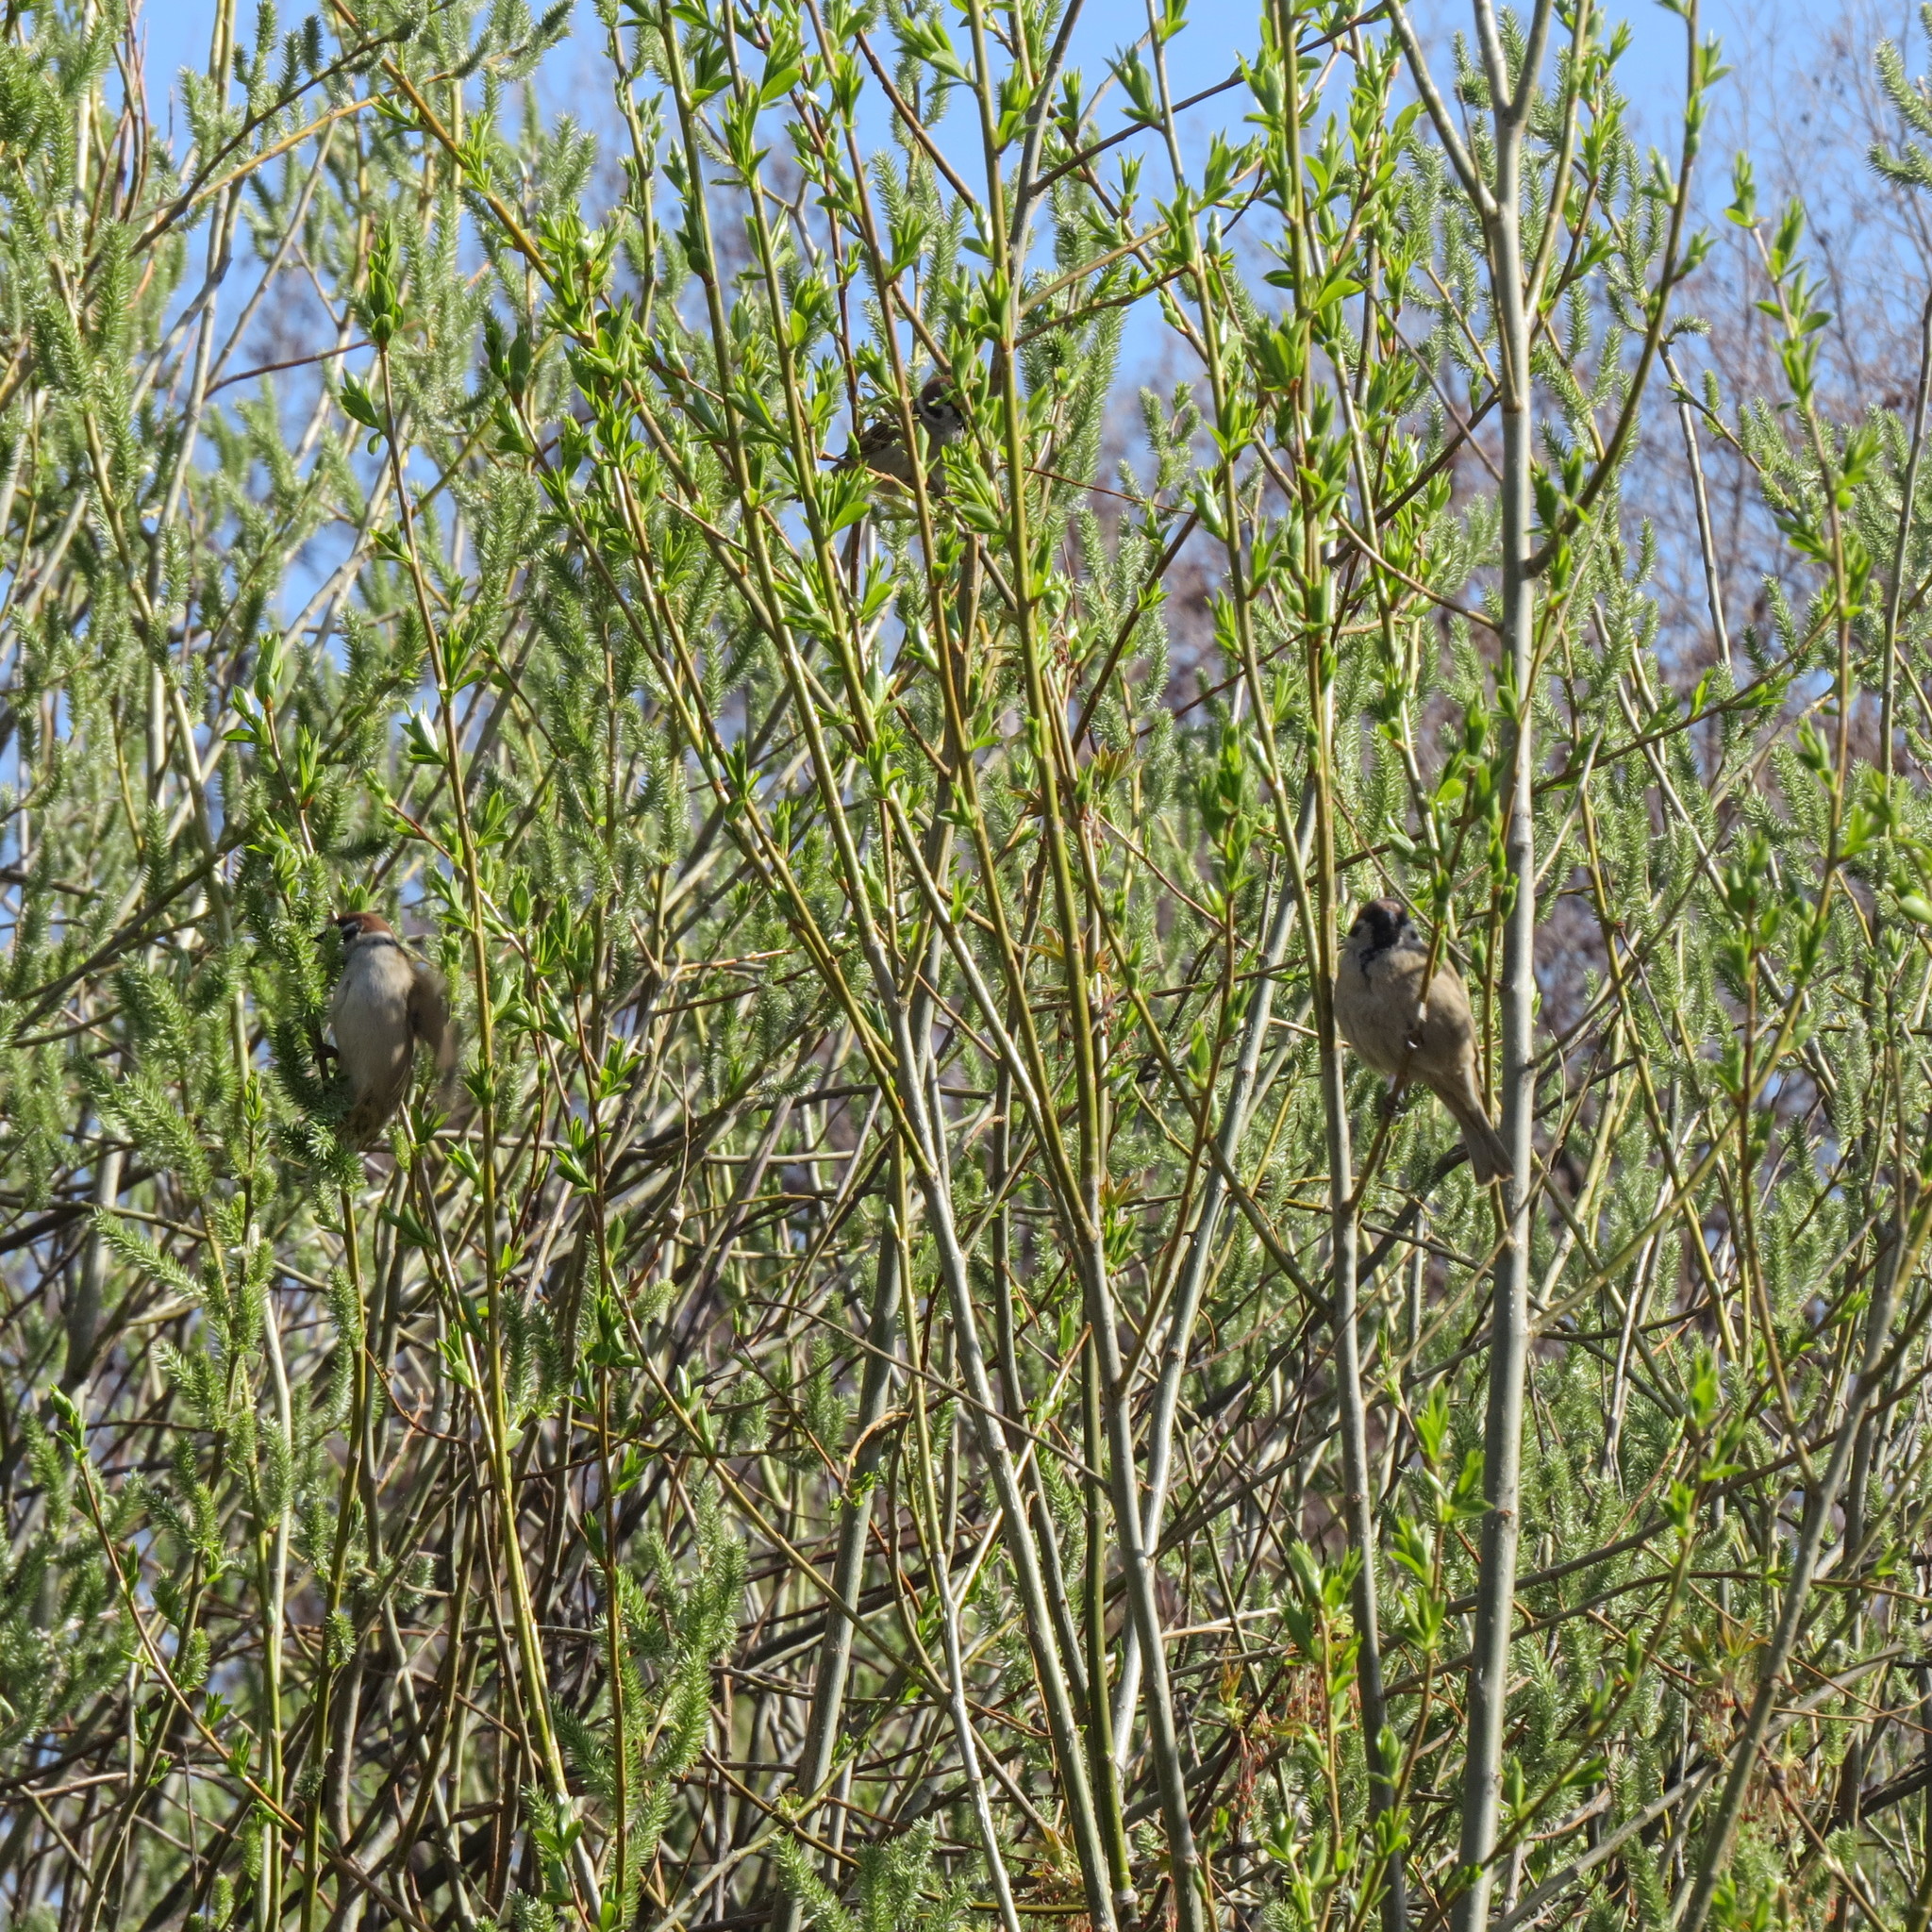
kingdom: Animalia
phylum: Chordata
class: Aves
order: Passeriformes
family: Passeridae
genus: Passer
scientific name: Passer montanus
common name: Eurasian tree sparrow
